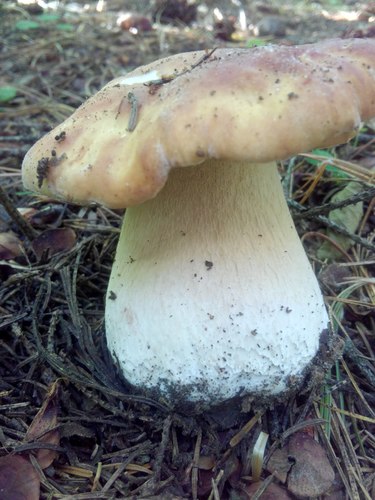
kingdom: Fungi
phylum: Basidiomycota
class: Agaricomycetes
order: Boletales
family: Boletaceae
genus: Boletus
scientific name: Boletus edulis
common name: Cep
